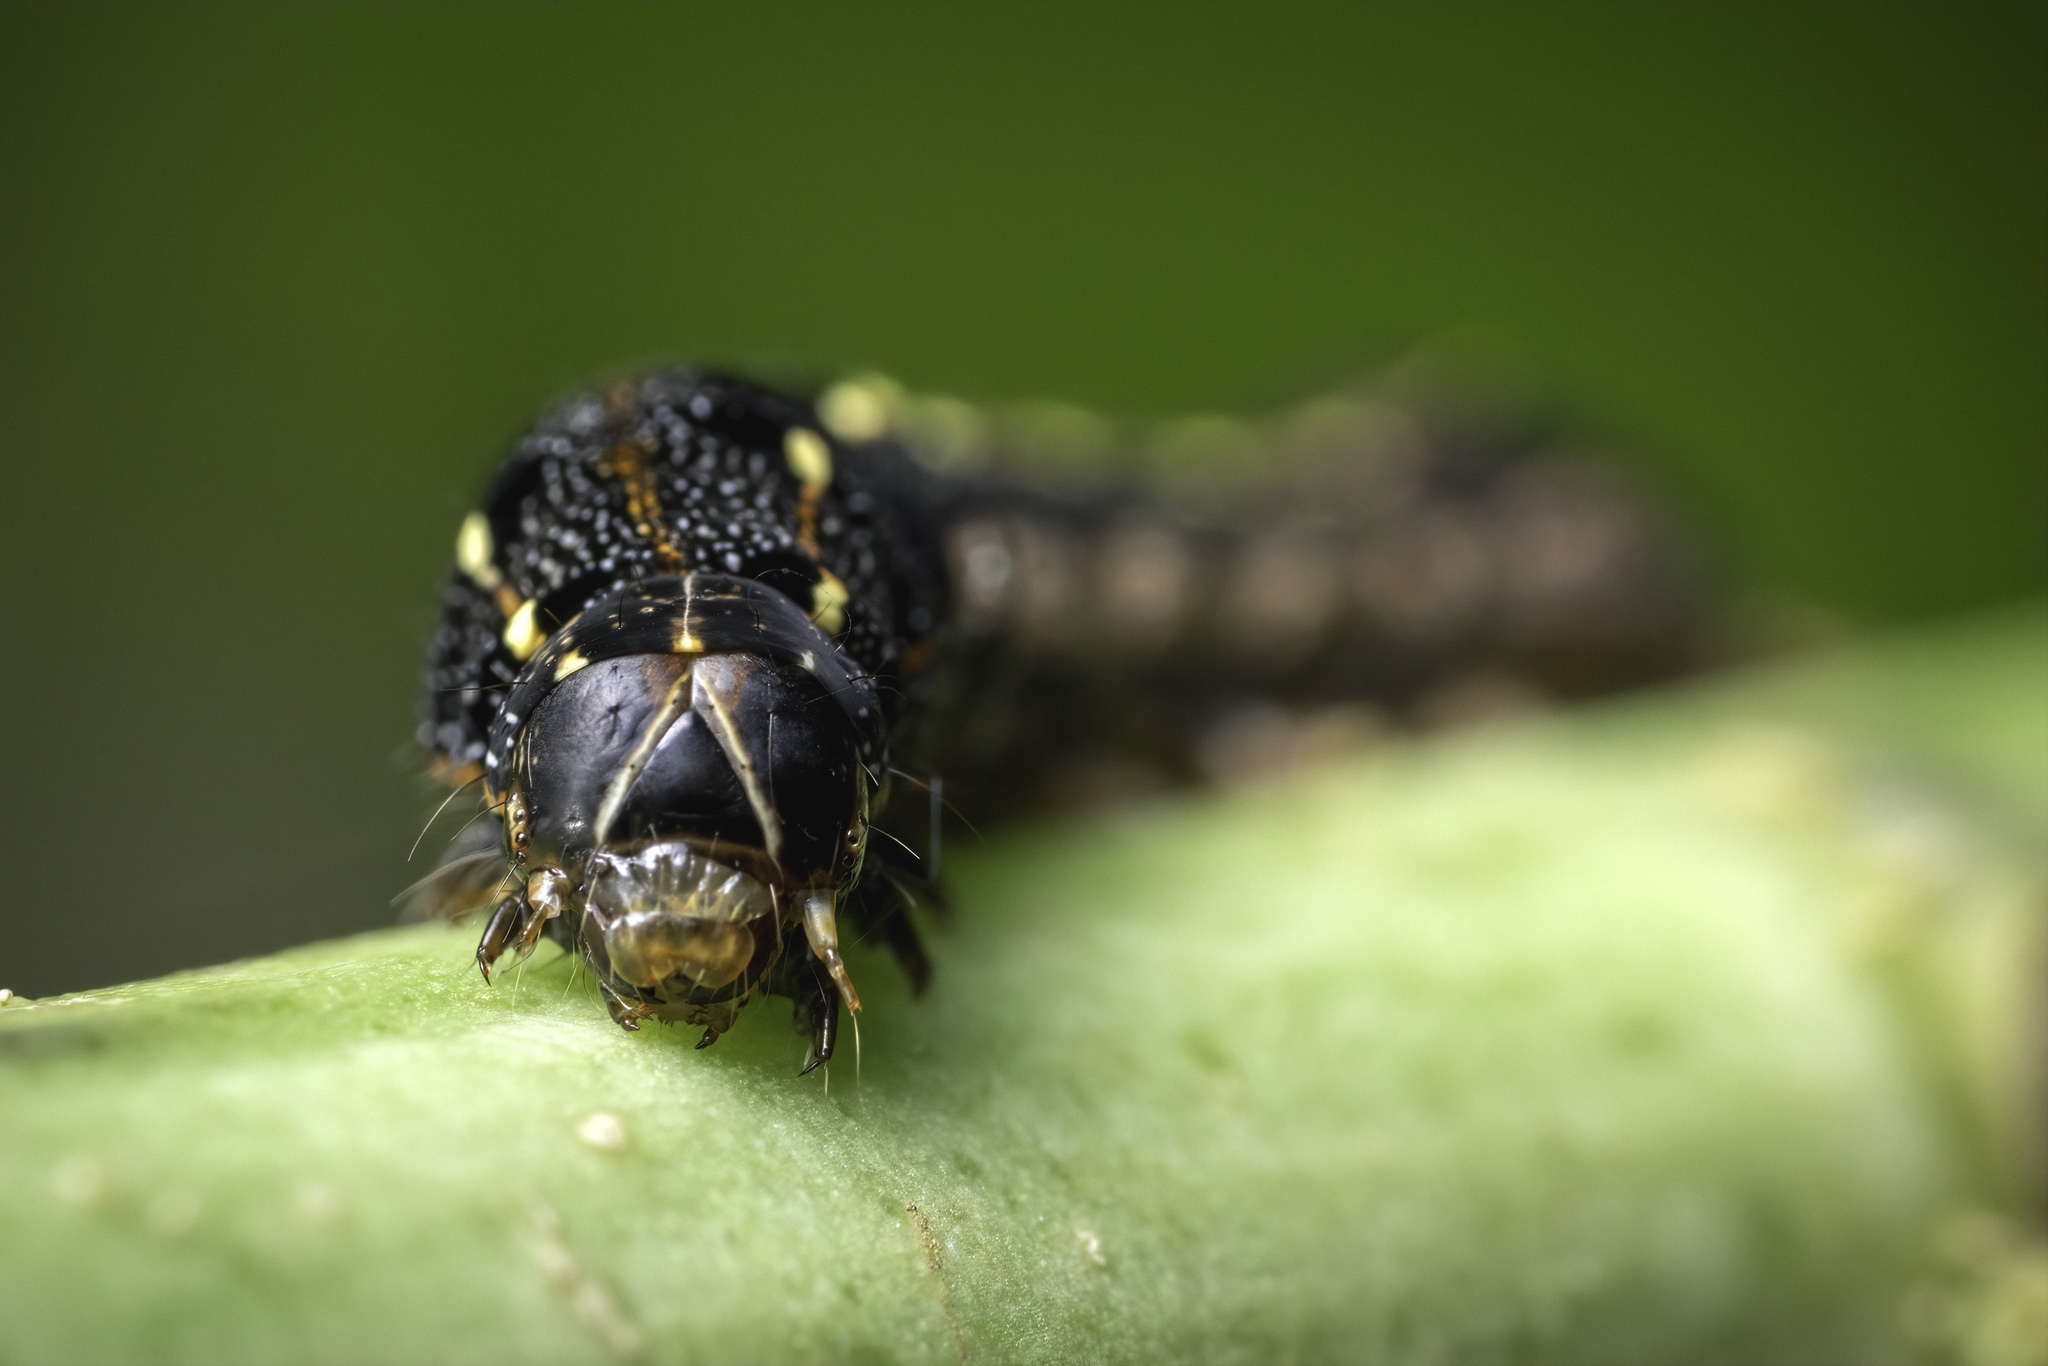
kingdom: Animalia
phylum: Arthropoda
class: Insecta
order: Lepidoptera
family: Noctuidae
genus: Spodoptera
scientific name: Spodoptera litura
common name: Asian cotton leafworm
